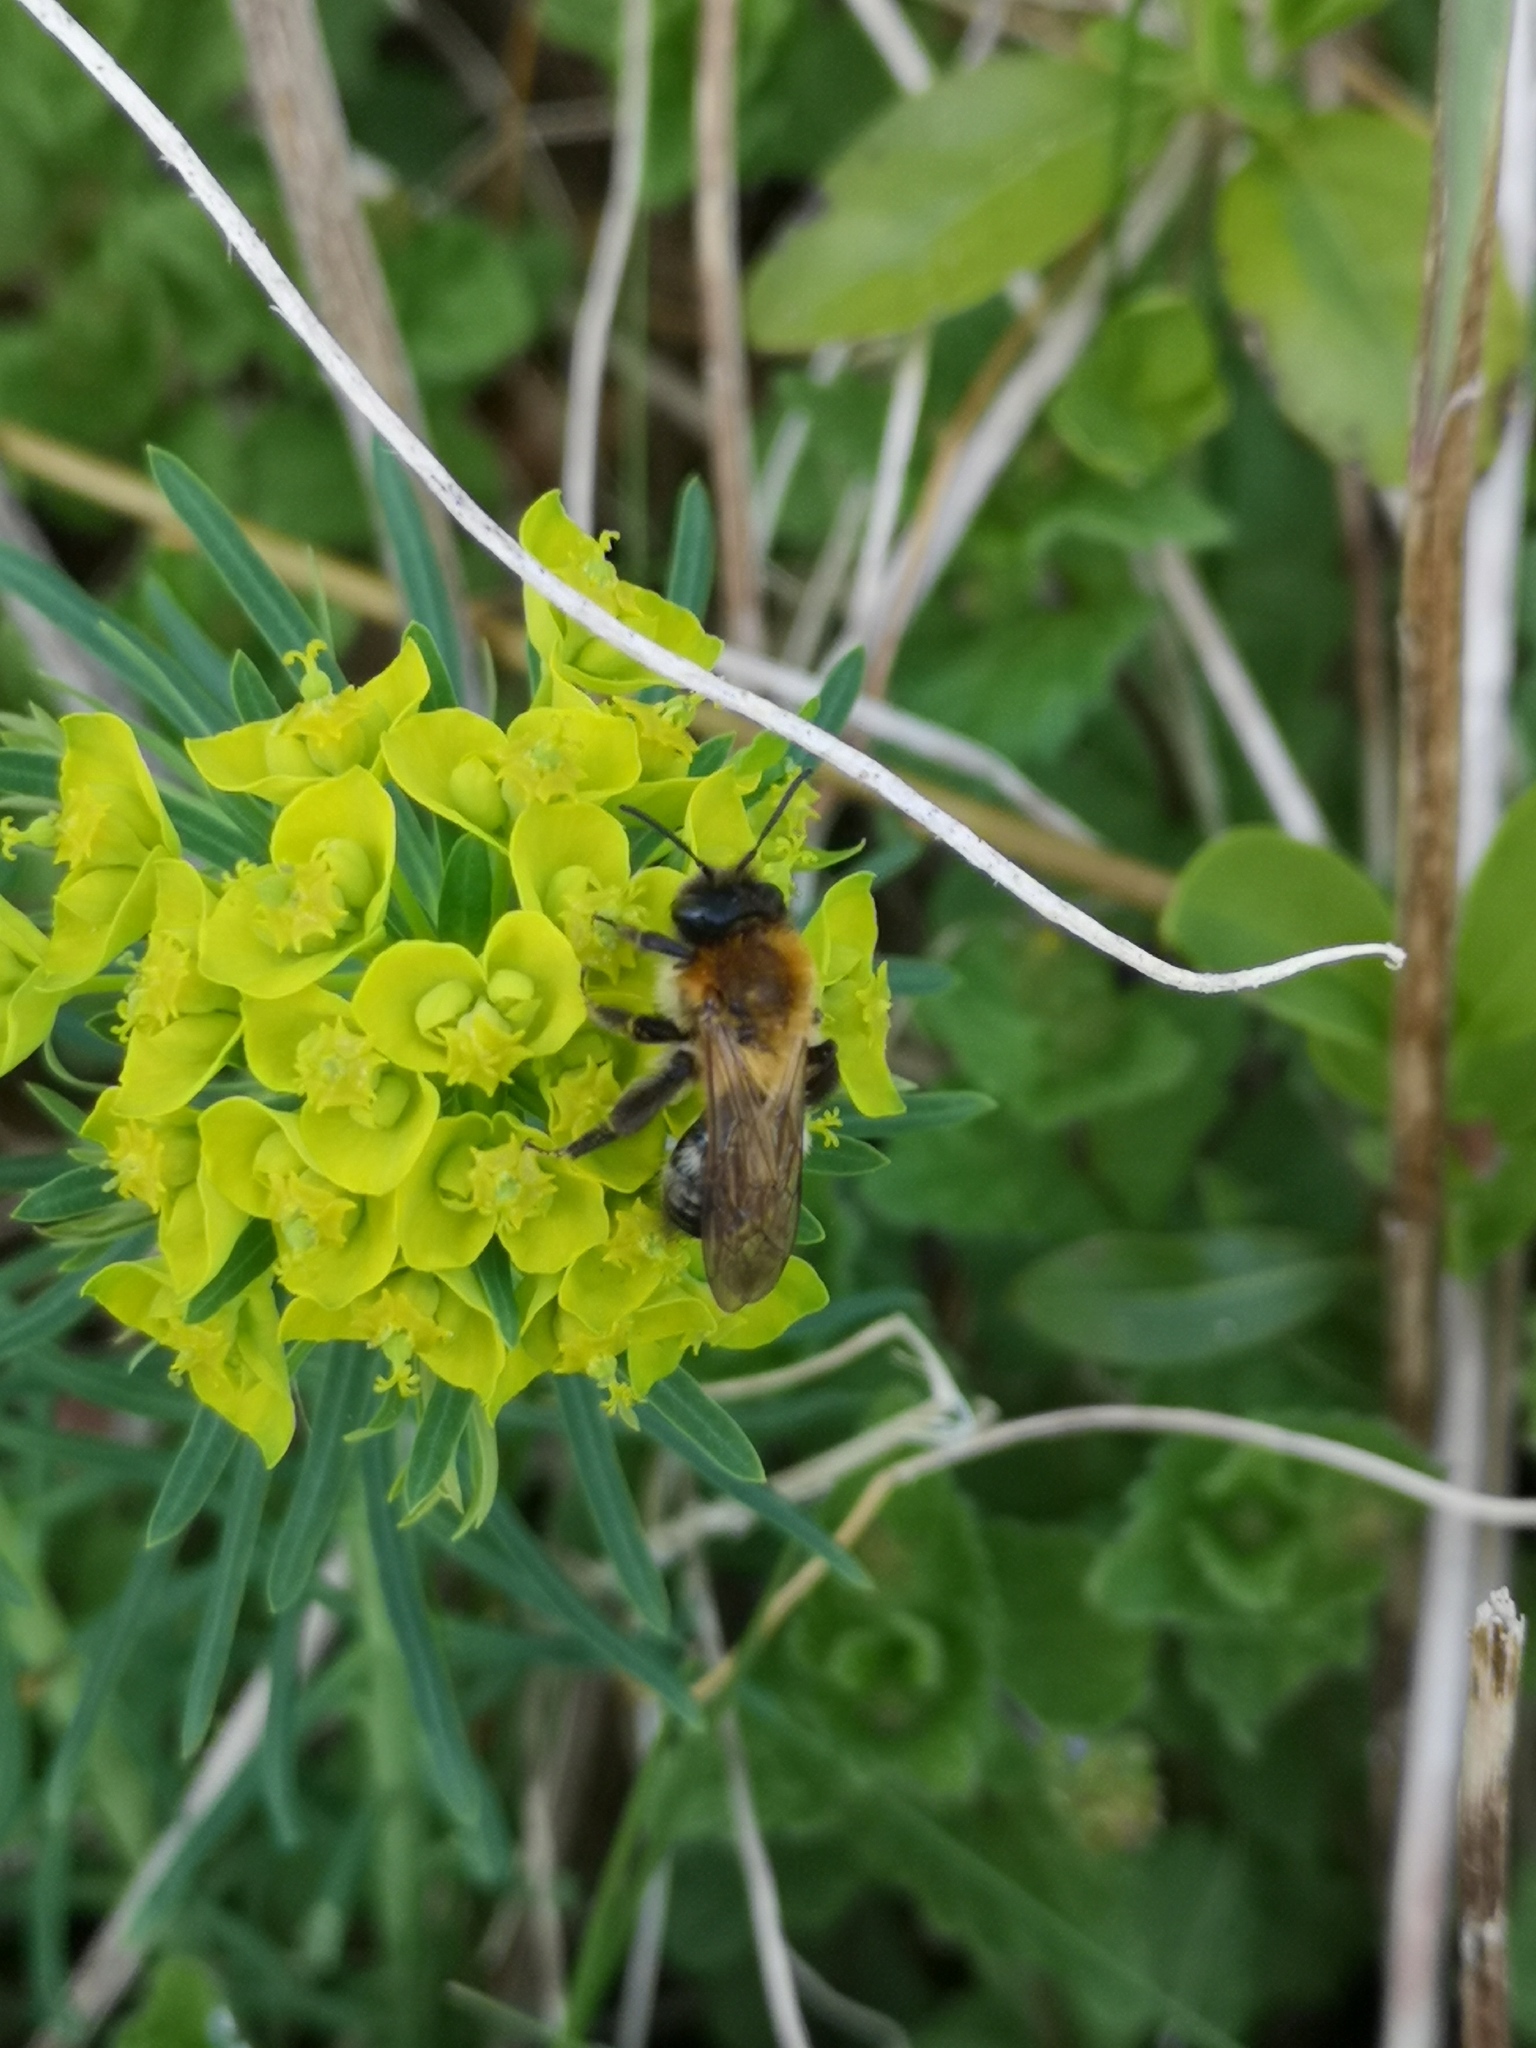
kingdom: Animalia
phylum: Arthropoda
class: Insecta
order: Hymenoptera
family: Andrenidae
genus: Andrena
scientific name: Andrena nitida
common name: Grey-patched mining bee
